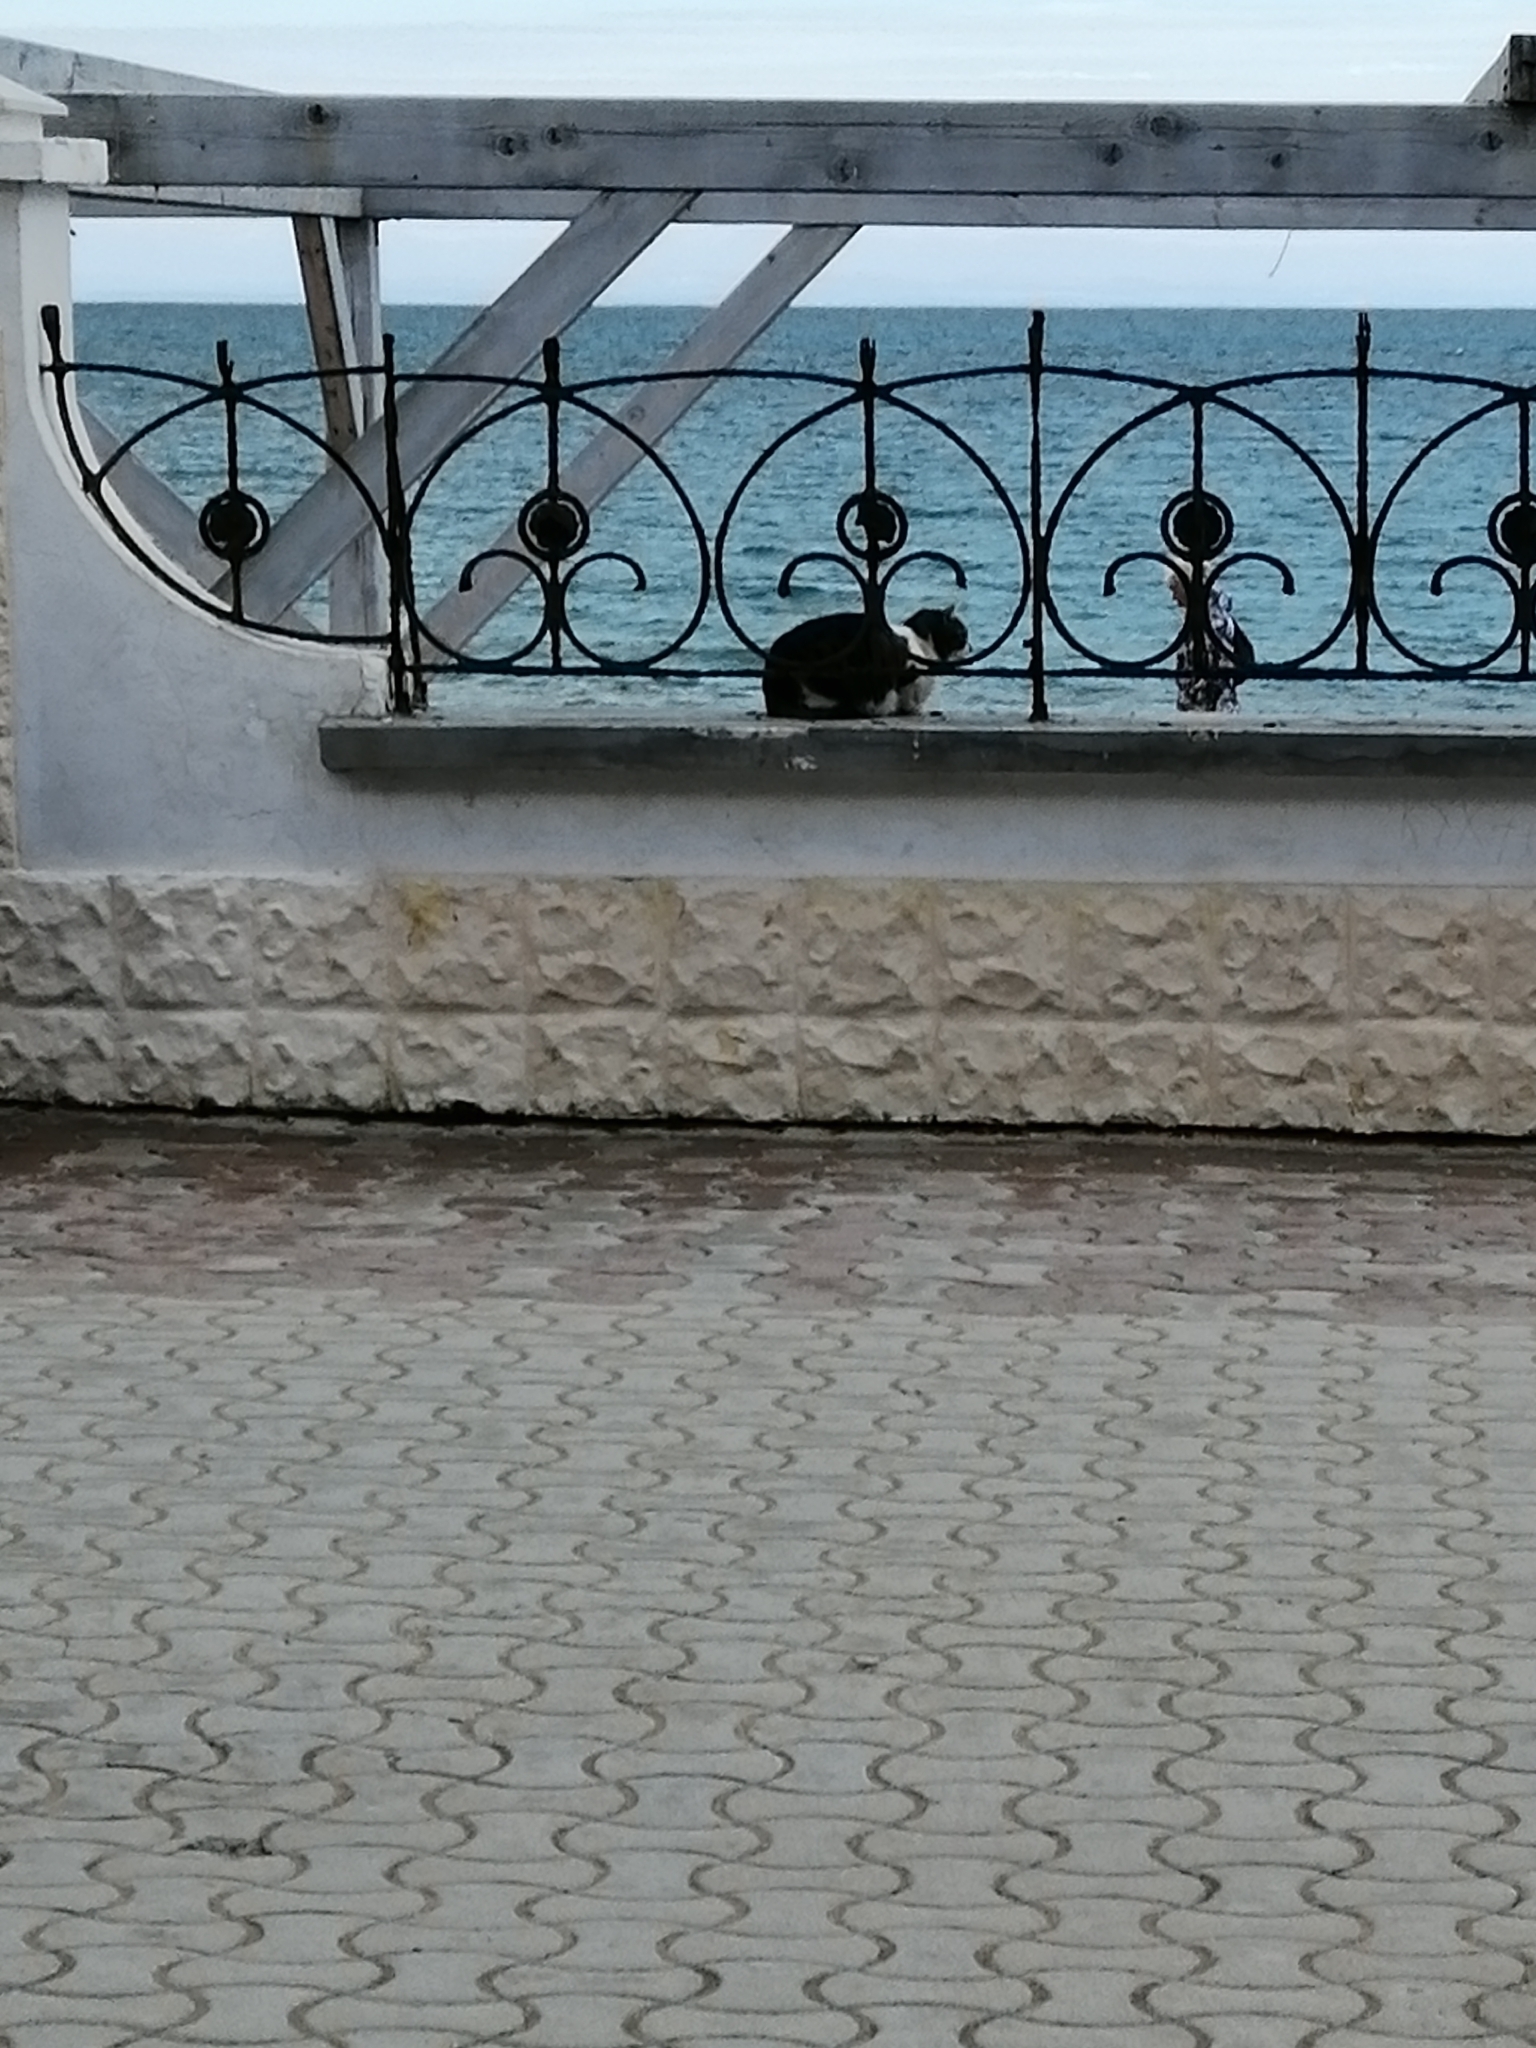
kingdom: Animalia
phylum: Chordata
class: Mammalia
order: Carnivora
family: Felidae
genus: Felis
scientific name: Felis catus
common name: Domestic cat
